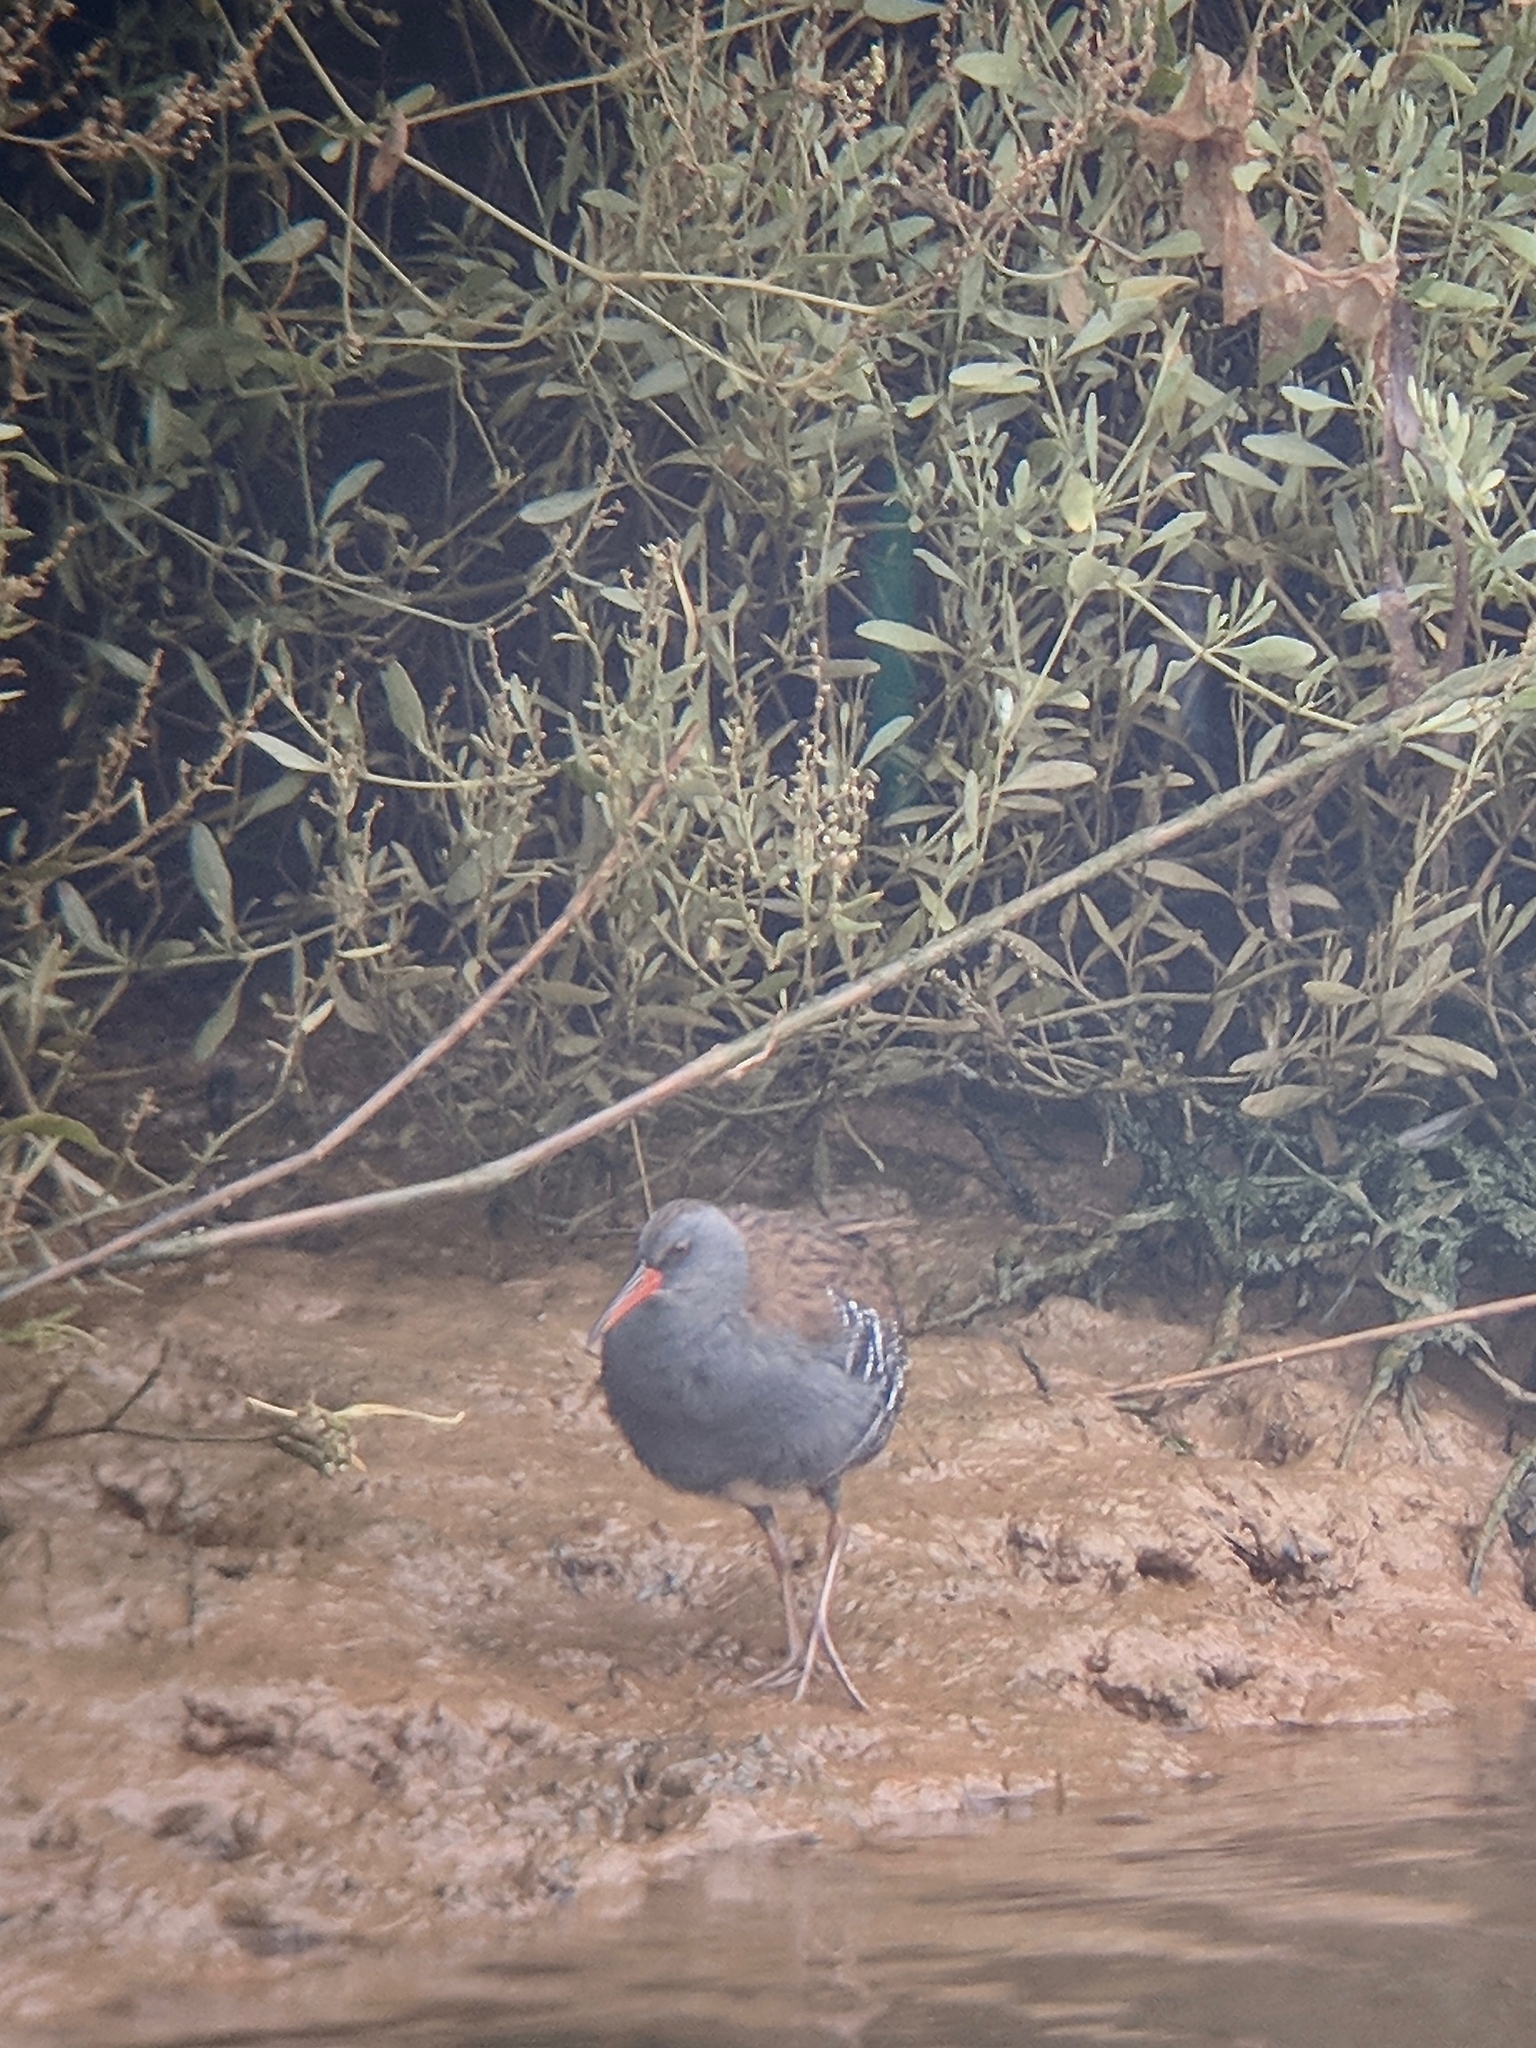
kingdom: Animalia
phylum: Chordata
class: Aves
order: Gruiformes
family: Rallidae
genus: Rallus
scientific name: Rallus aquaticus
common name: Water rail
